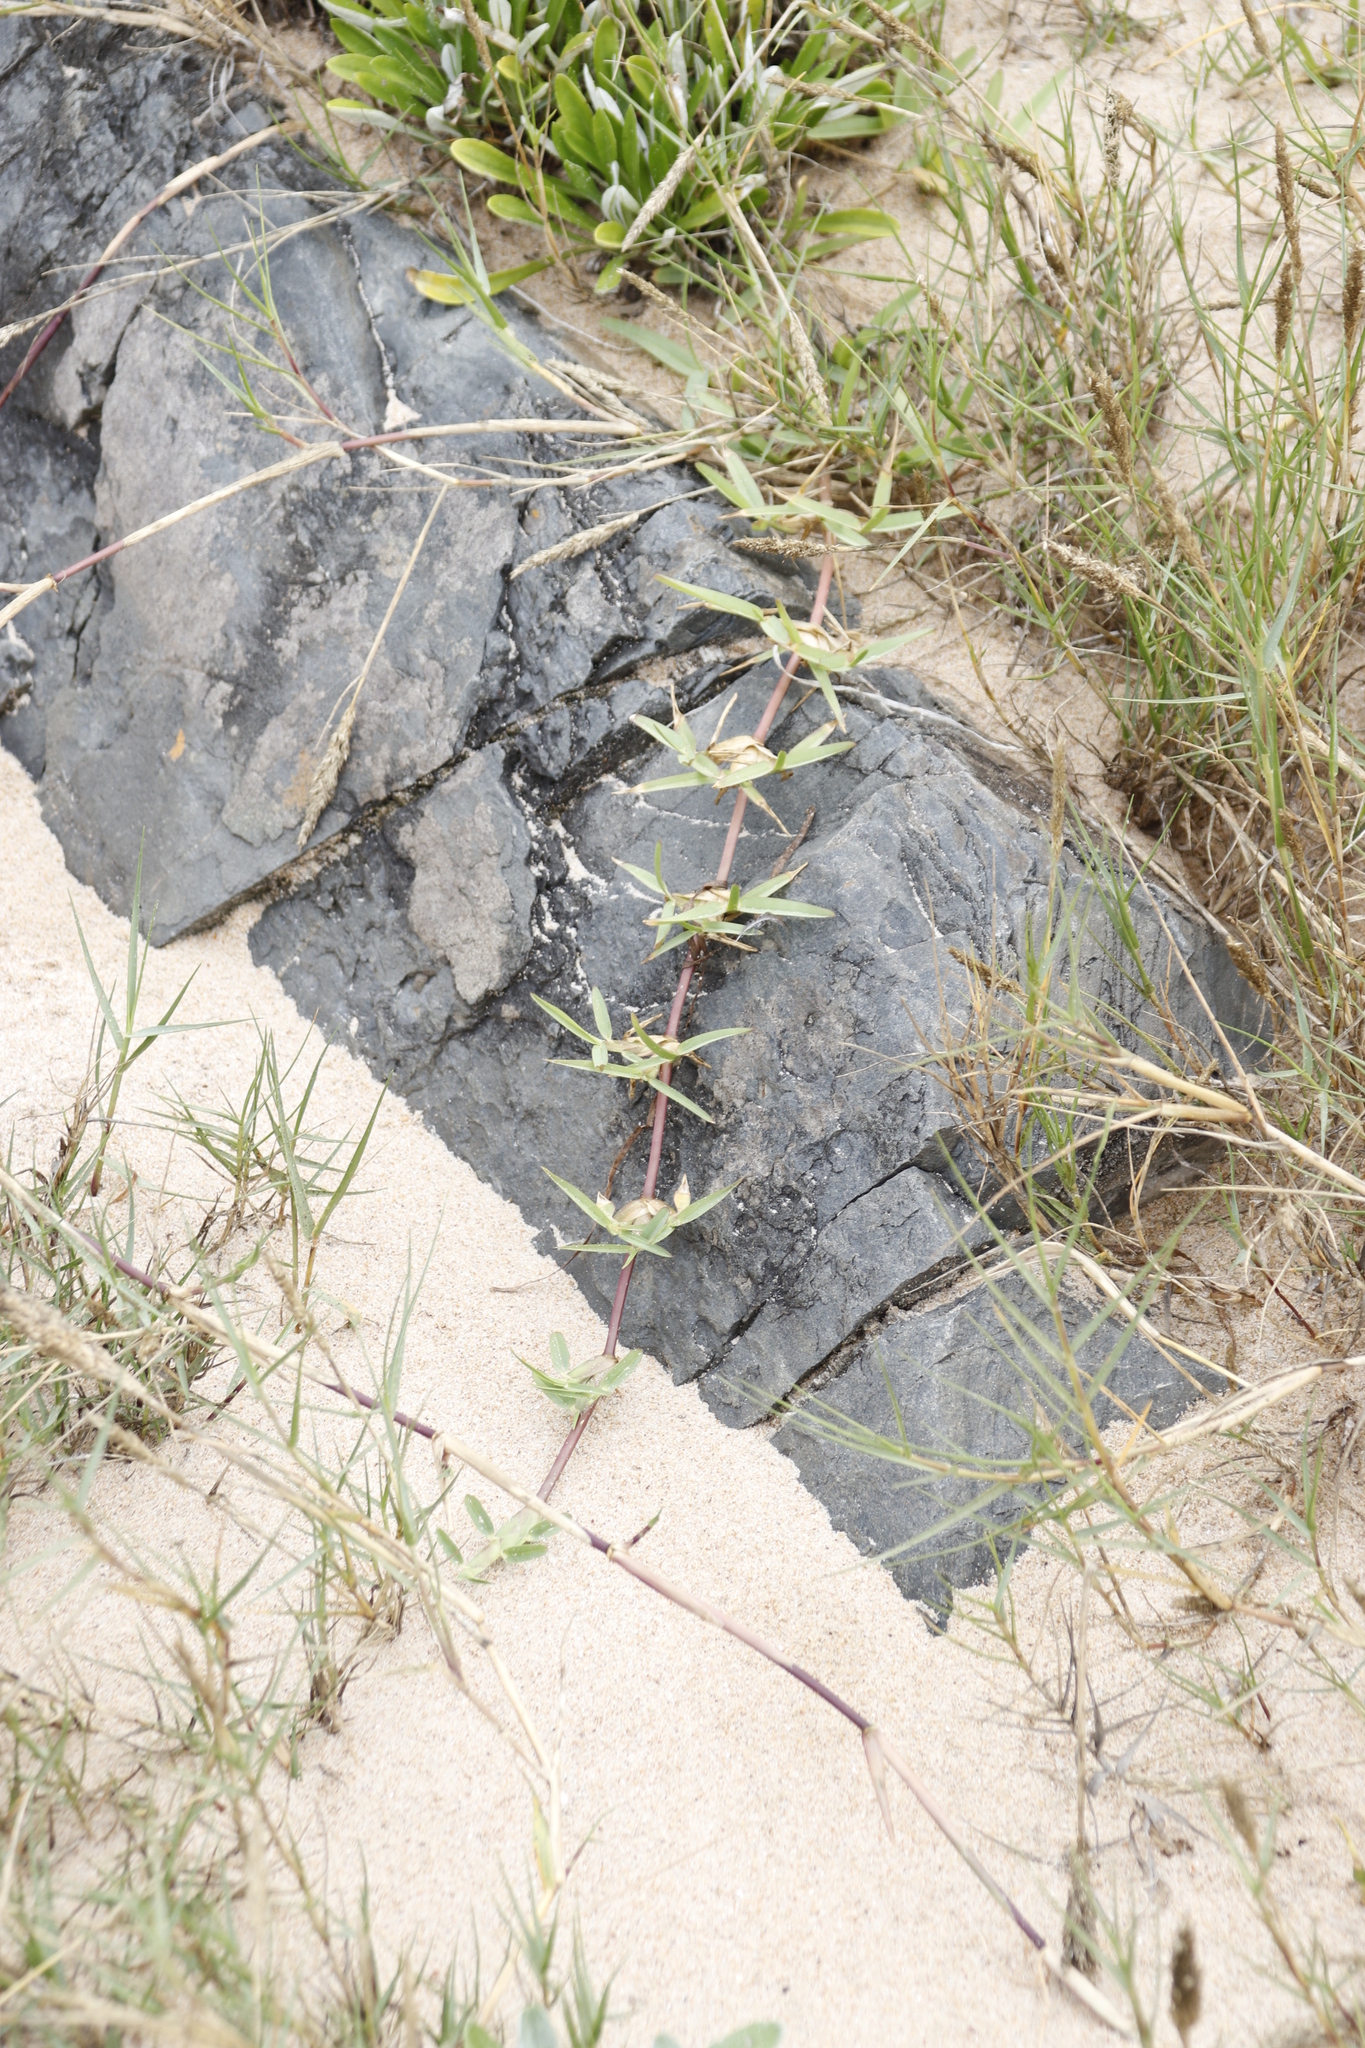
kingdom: Plantae
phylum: Tracheophyta
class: Liliopsida
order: Poales
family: Poaceae
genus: Stenotaphrum
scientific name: Stenotaphrum secundatum
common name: St. augustine grass
